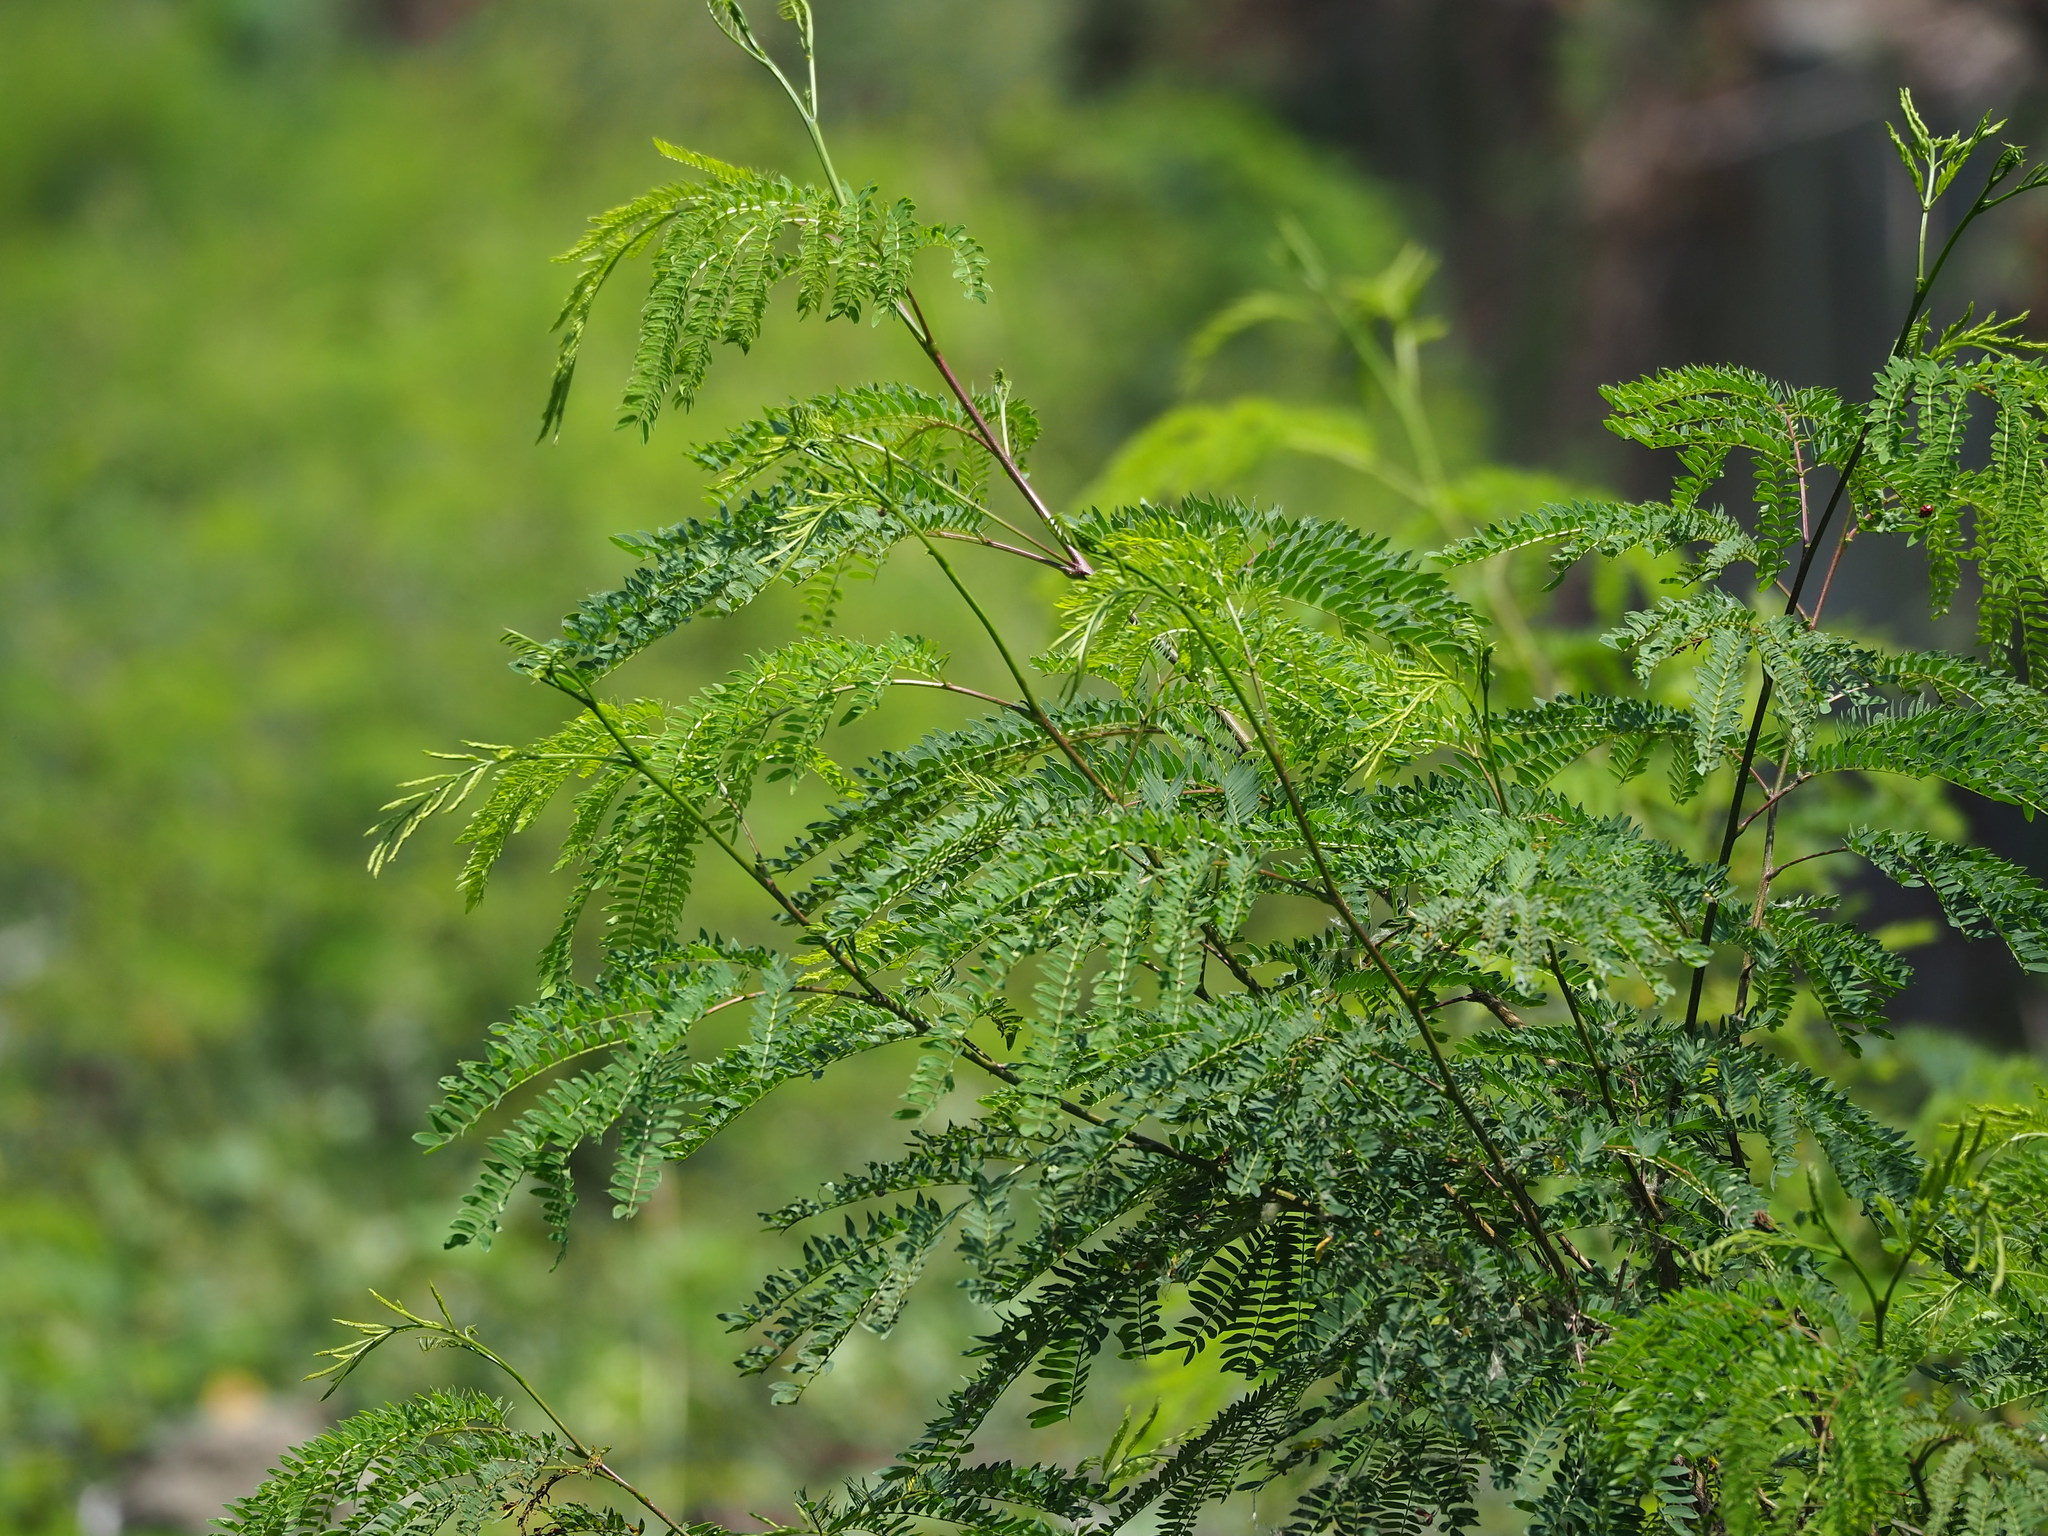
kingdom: Plantae
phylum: Tracheophyta
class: Magnoliopsida
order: Fabales
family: Fabaceae
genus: Leucaena
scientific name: Leucaena leucocephala
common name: White leadtree
